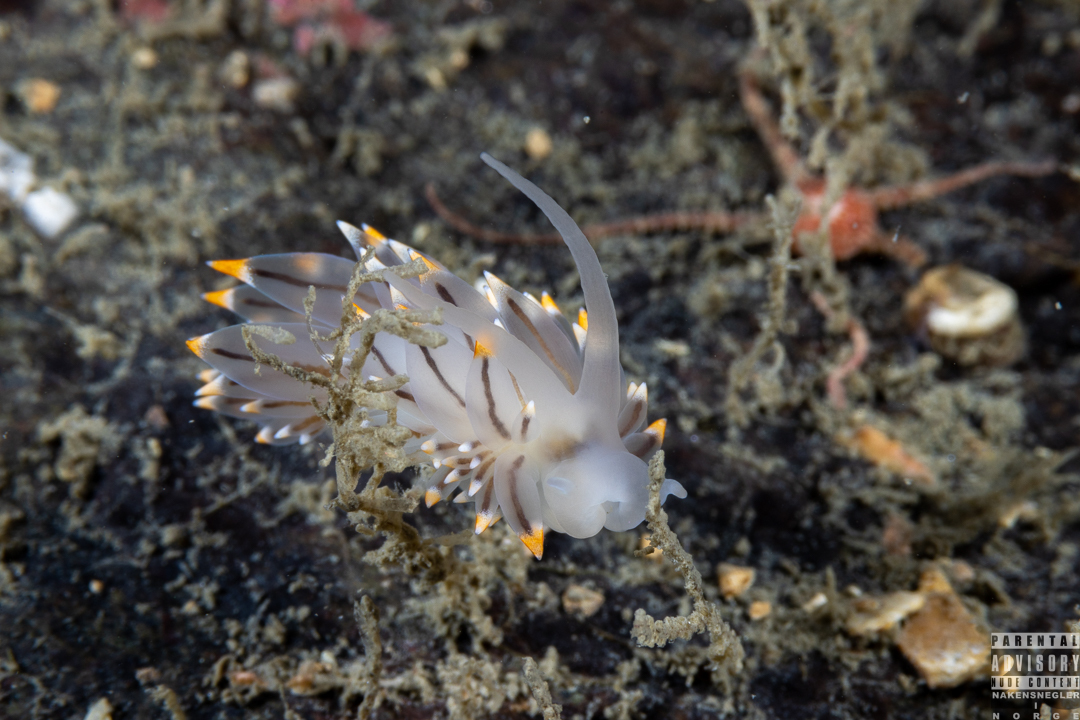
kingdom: Animalia
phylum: Mollusca
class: Gastropoda
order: Nudibranchia
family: Eubranchidae
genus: Eubranchus
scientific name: Eubranchus tricolor
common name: Painted balloon aeolis
